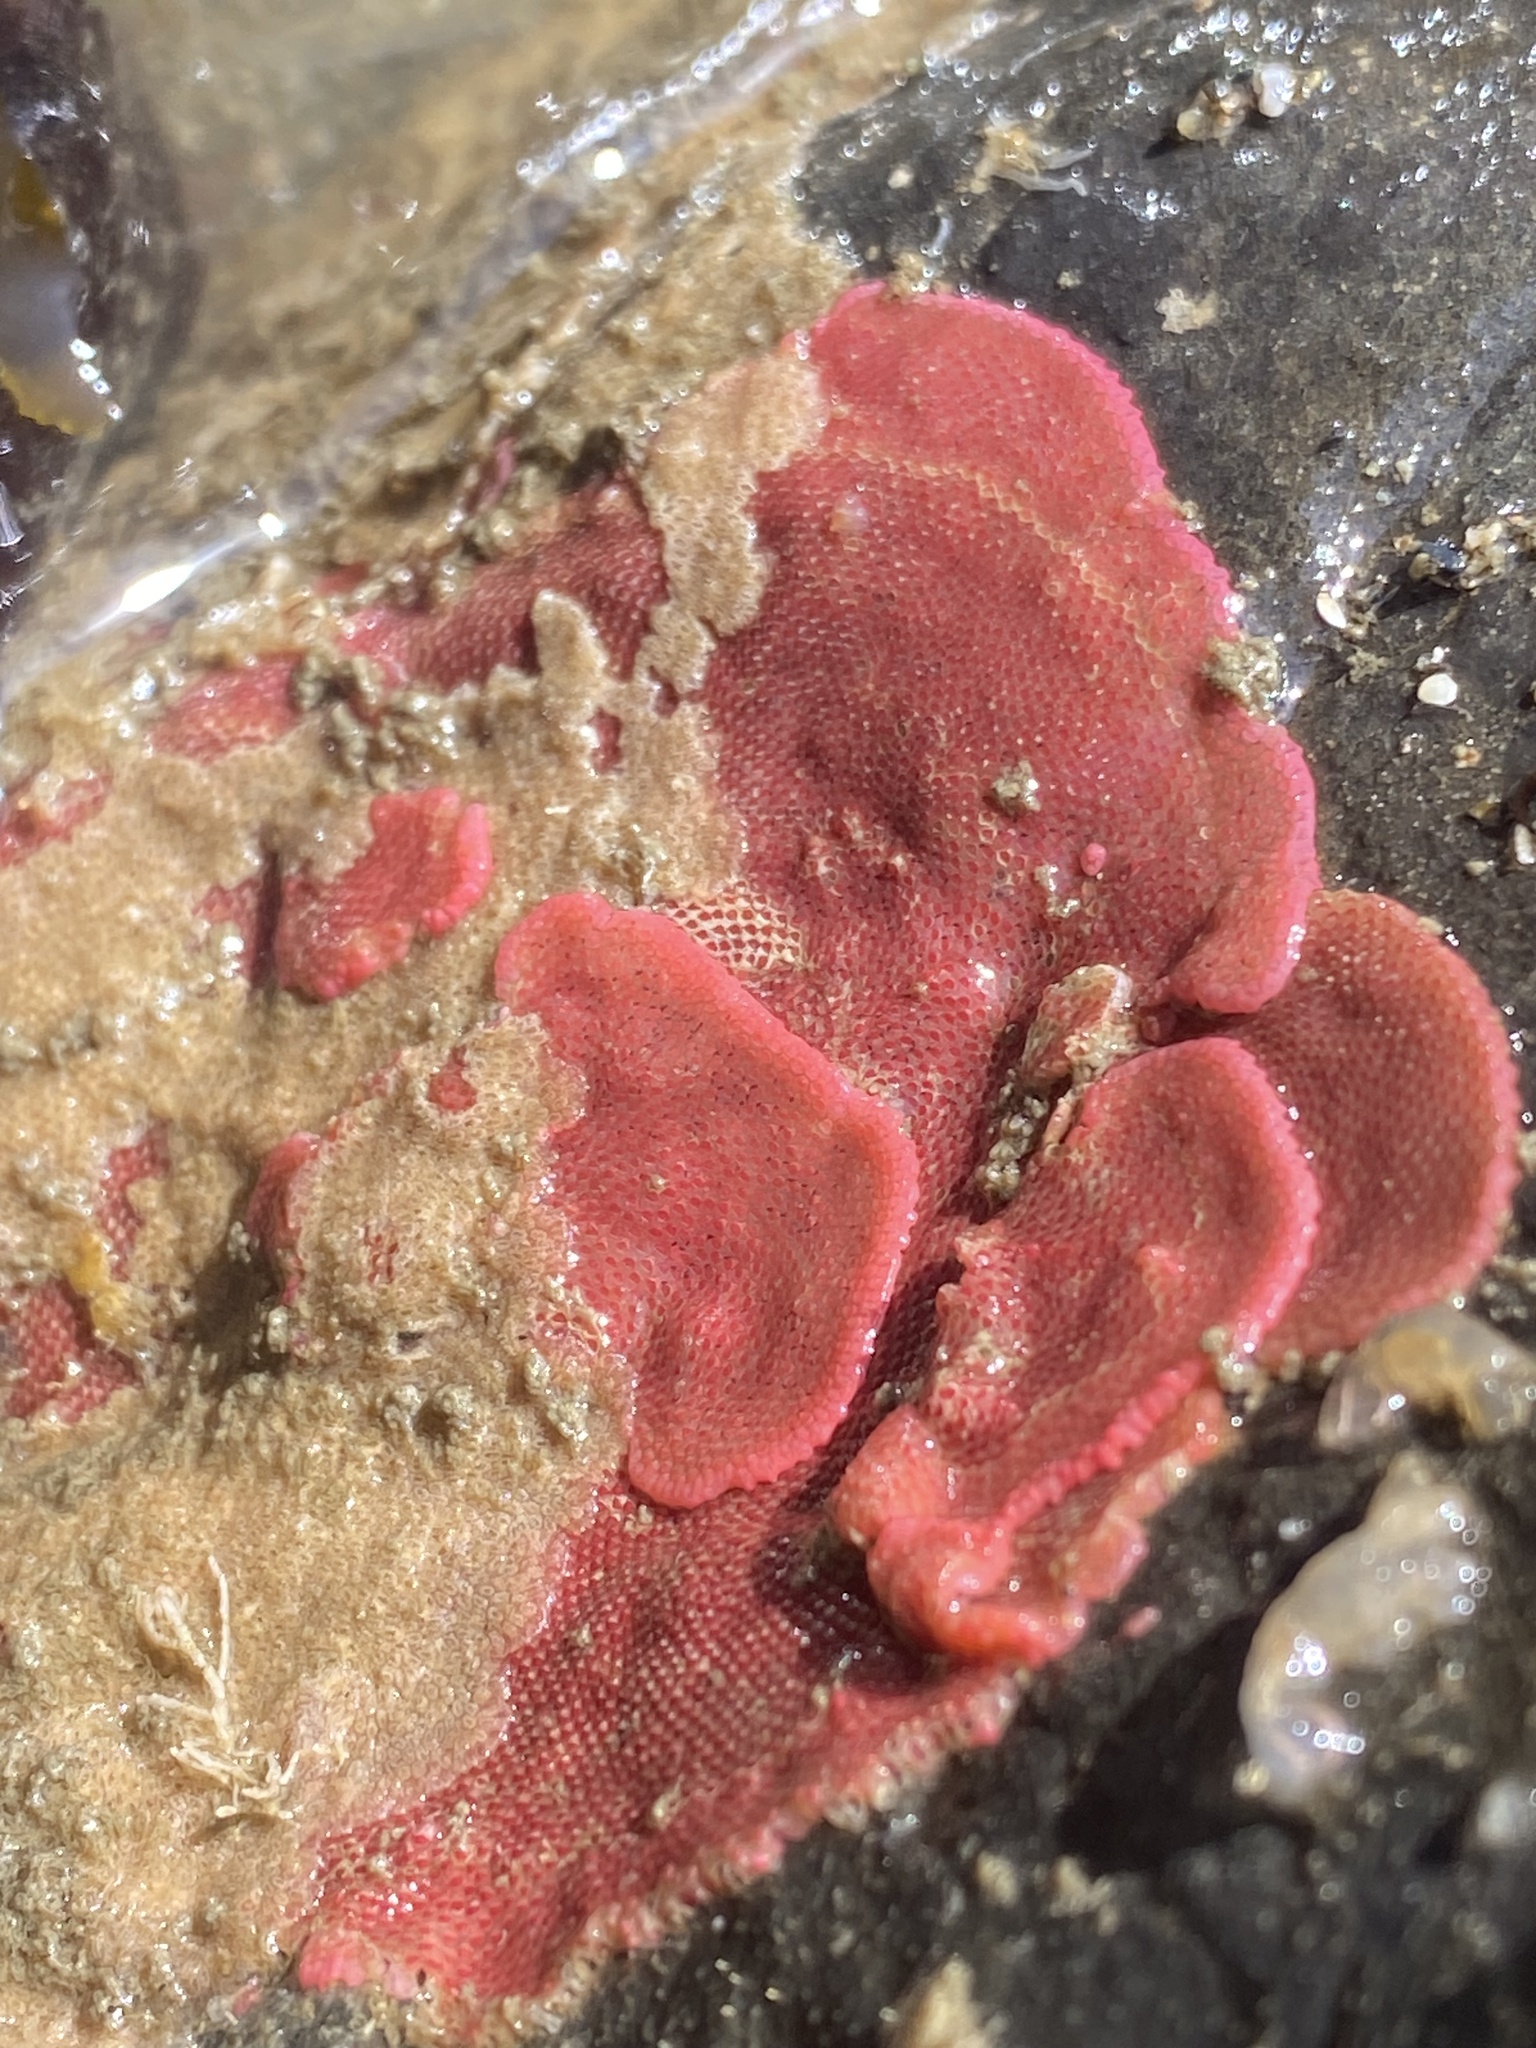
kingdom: Animalia
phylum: Bryozoa
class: Gymnolaemata
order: Cheilostomatida
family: Eurystomellidae
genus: Integripelta
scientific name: Integripelta bilabiata
